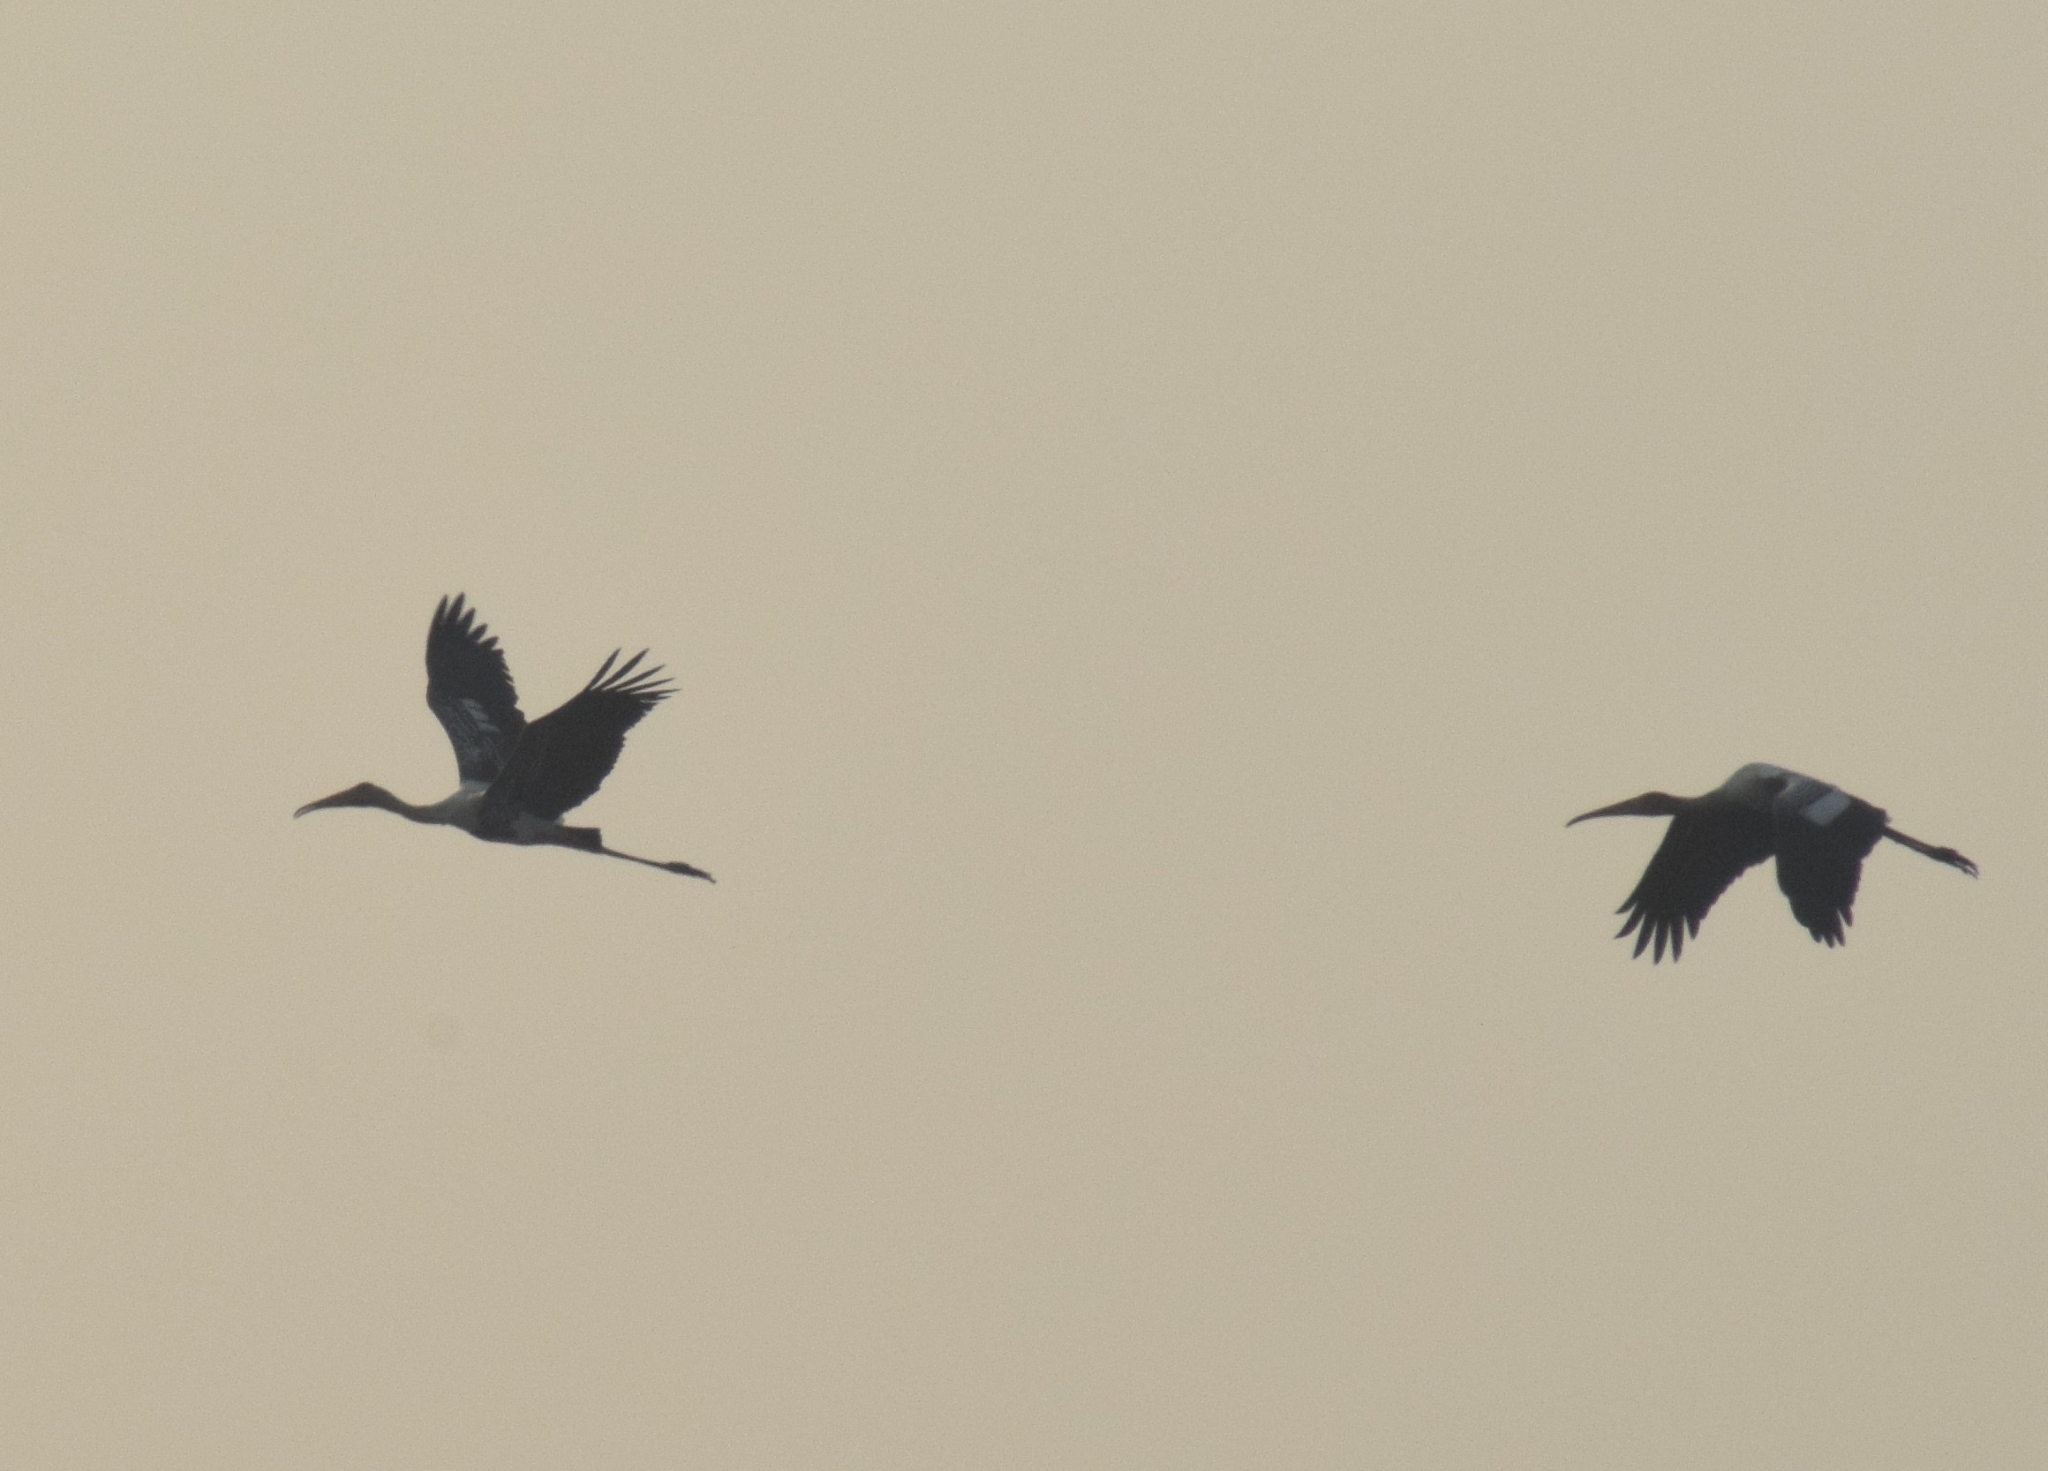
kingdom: Animalia
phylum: Chordata
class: Aves
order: Ciconiiformes
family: Ciconiidae
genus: Mycteria
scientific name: Mycteria leucocephala
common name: Painted stork
